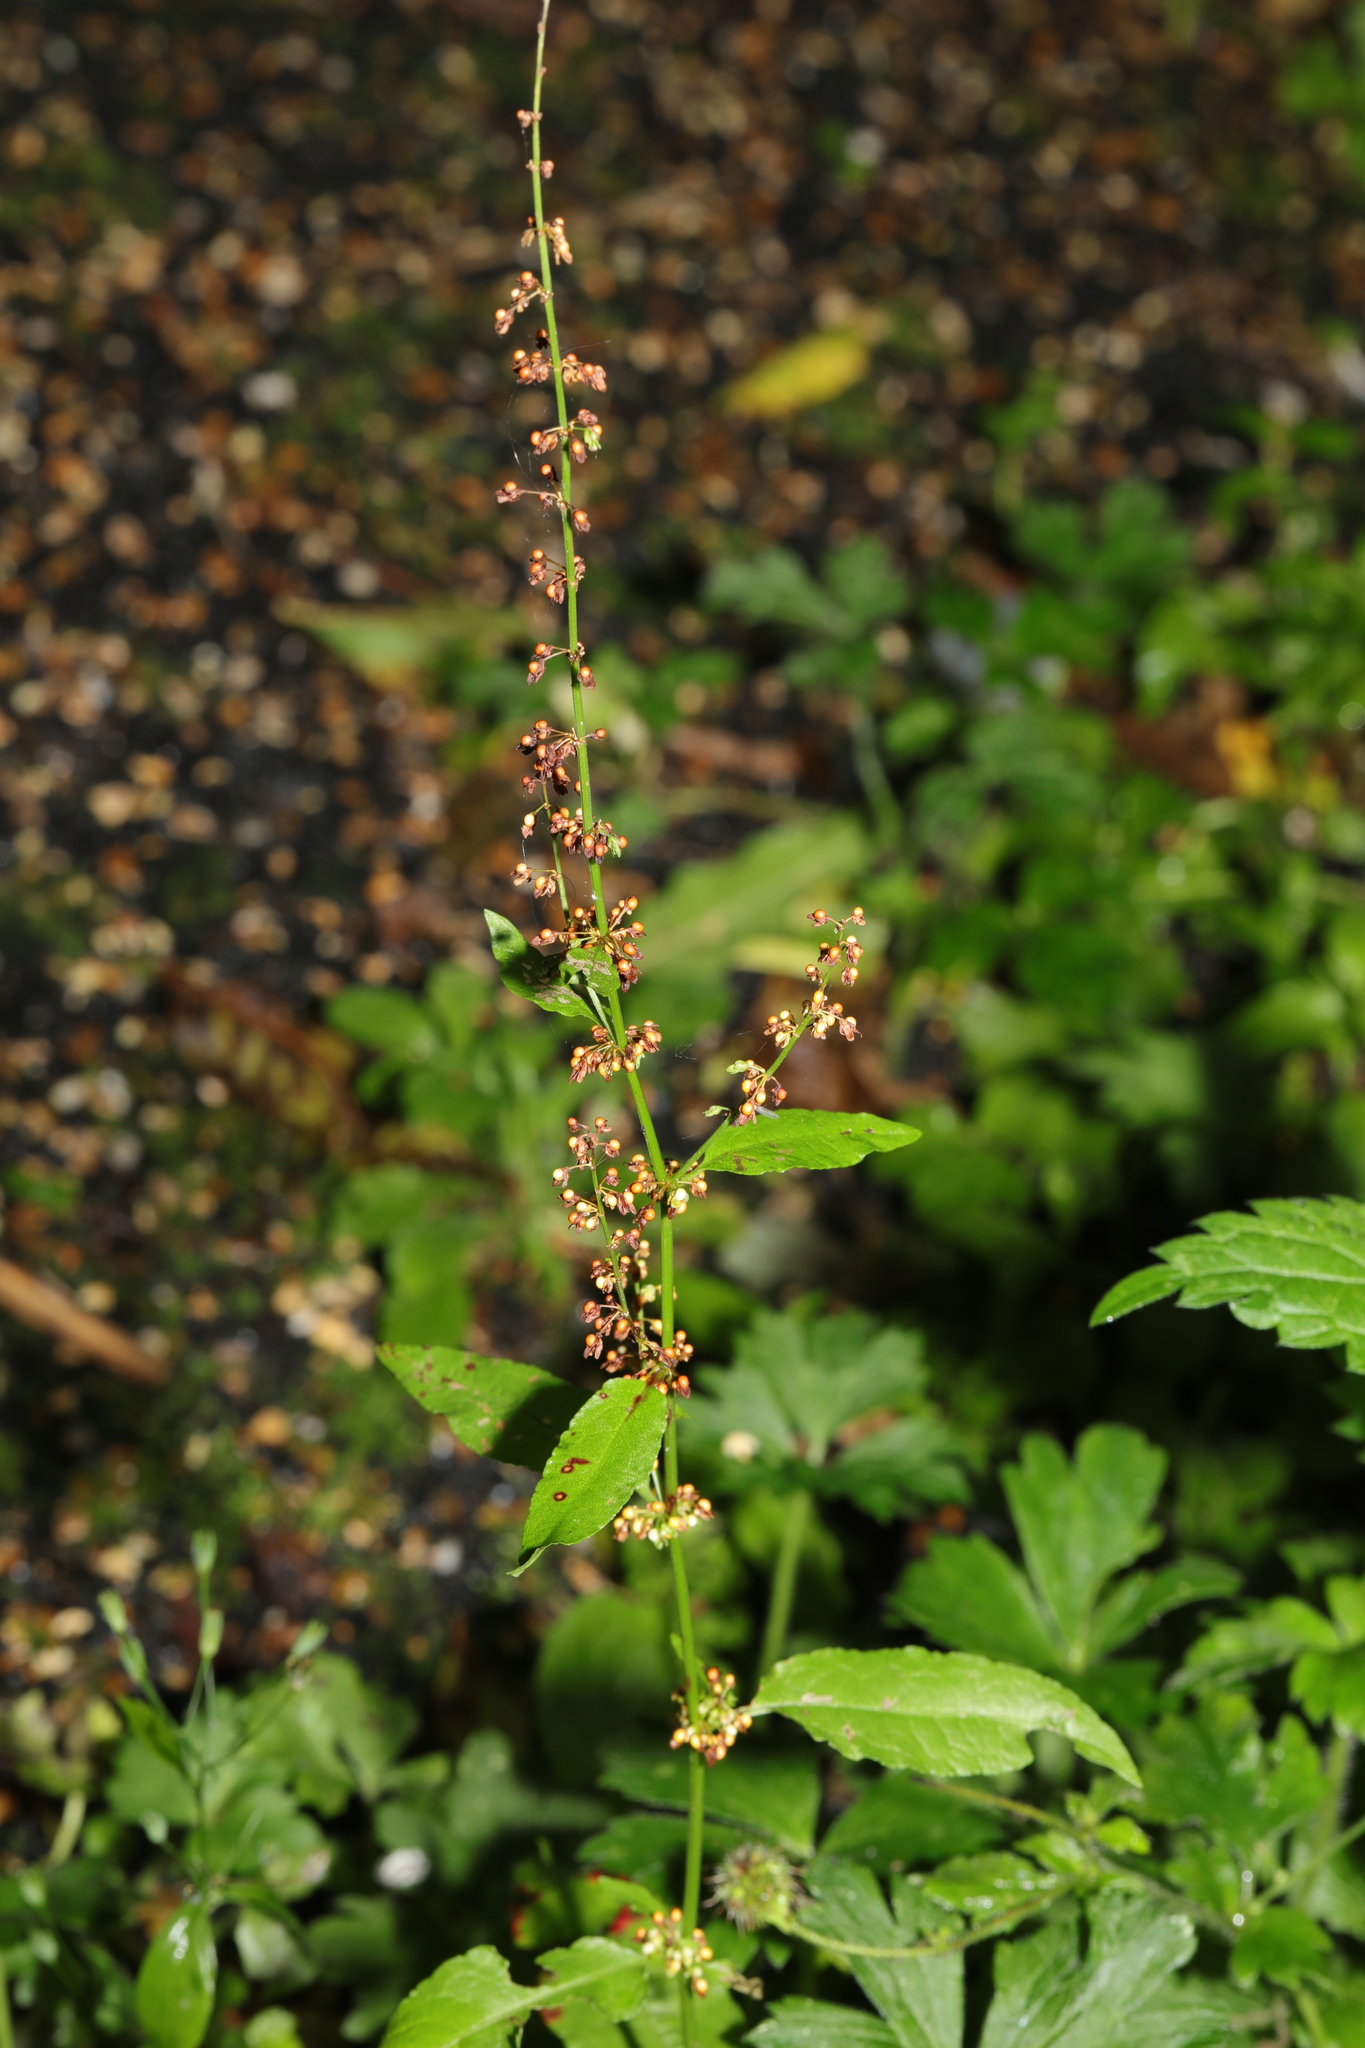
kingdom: Plantae
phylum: Tracheophyta
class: Magnoliopsida
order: Caryophyllales
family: Polygonaceae
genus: Rumex
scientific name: Rumex sanguineus
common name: Wood dock
